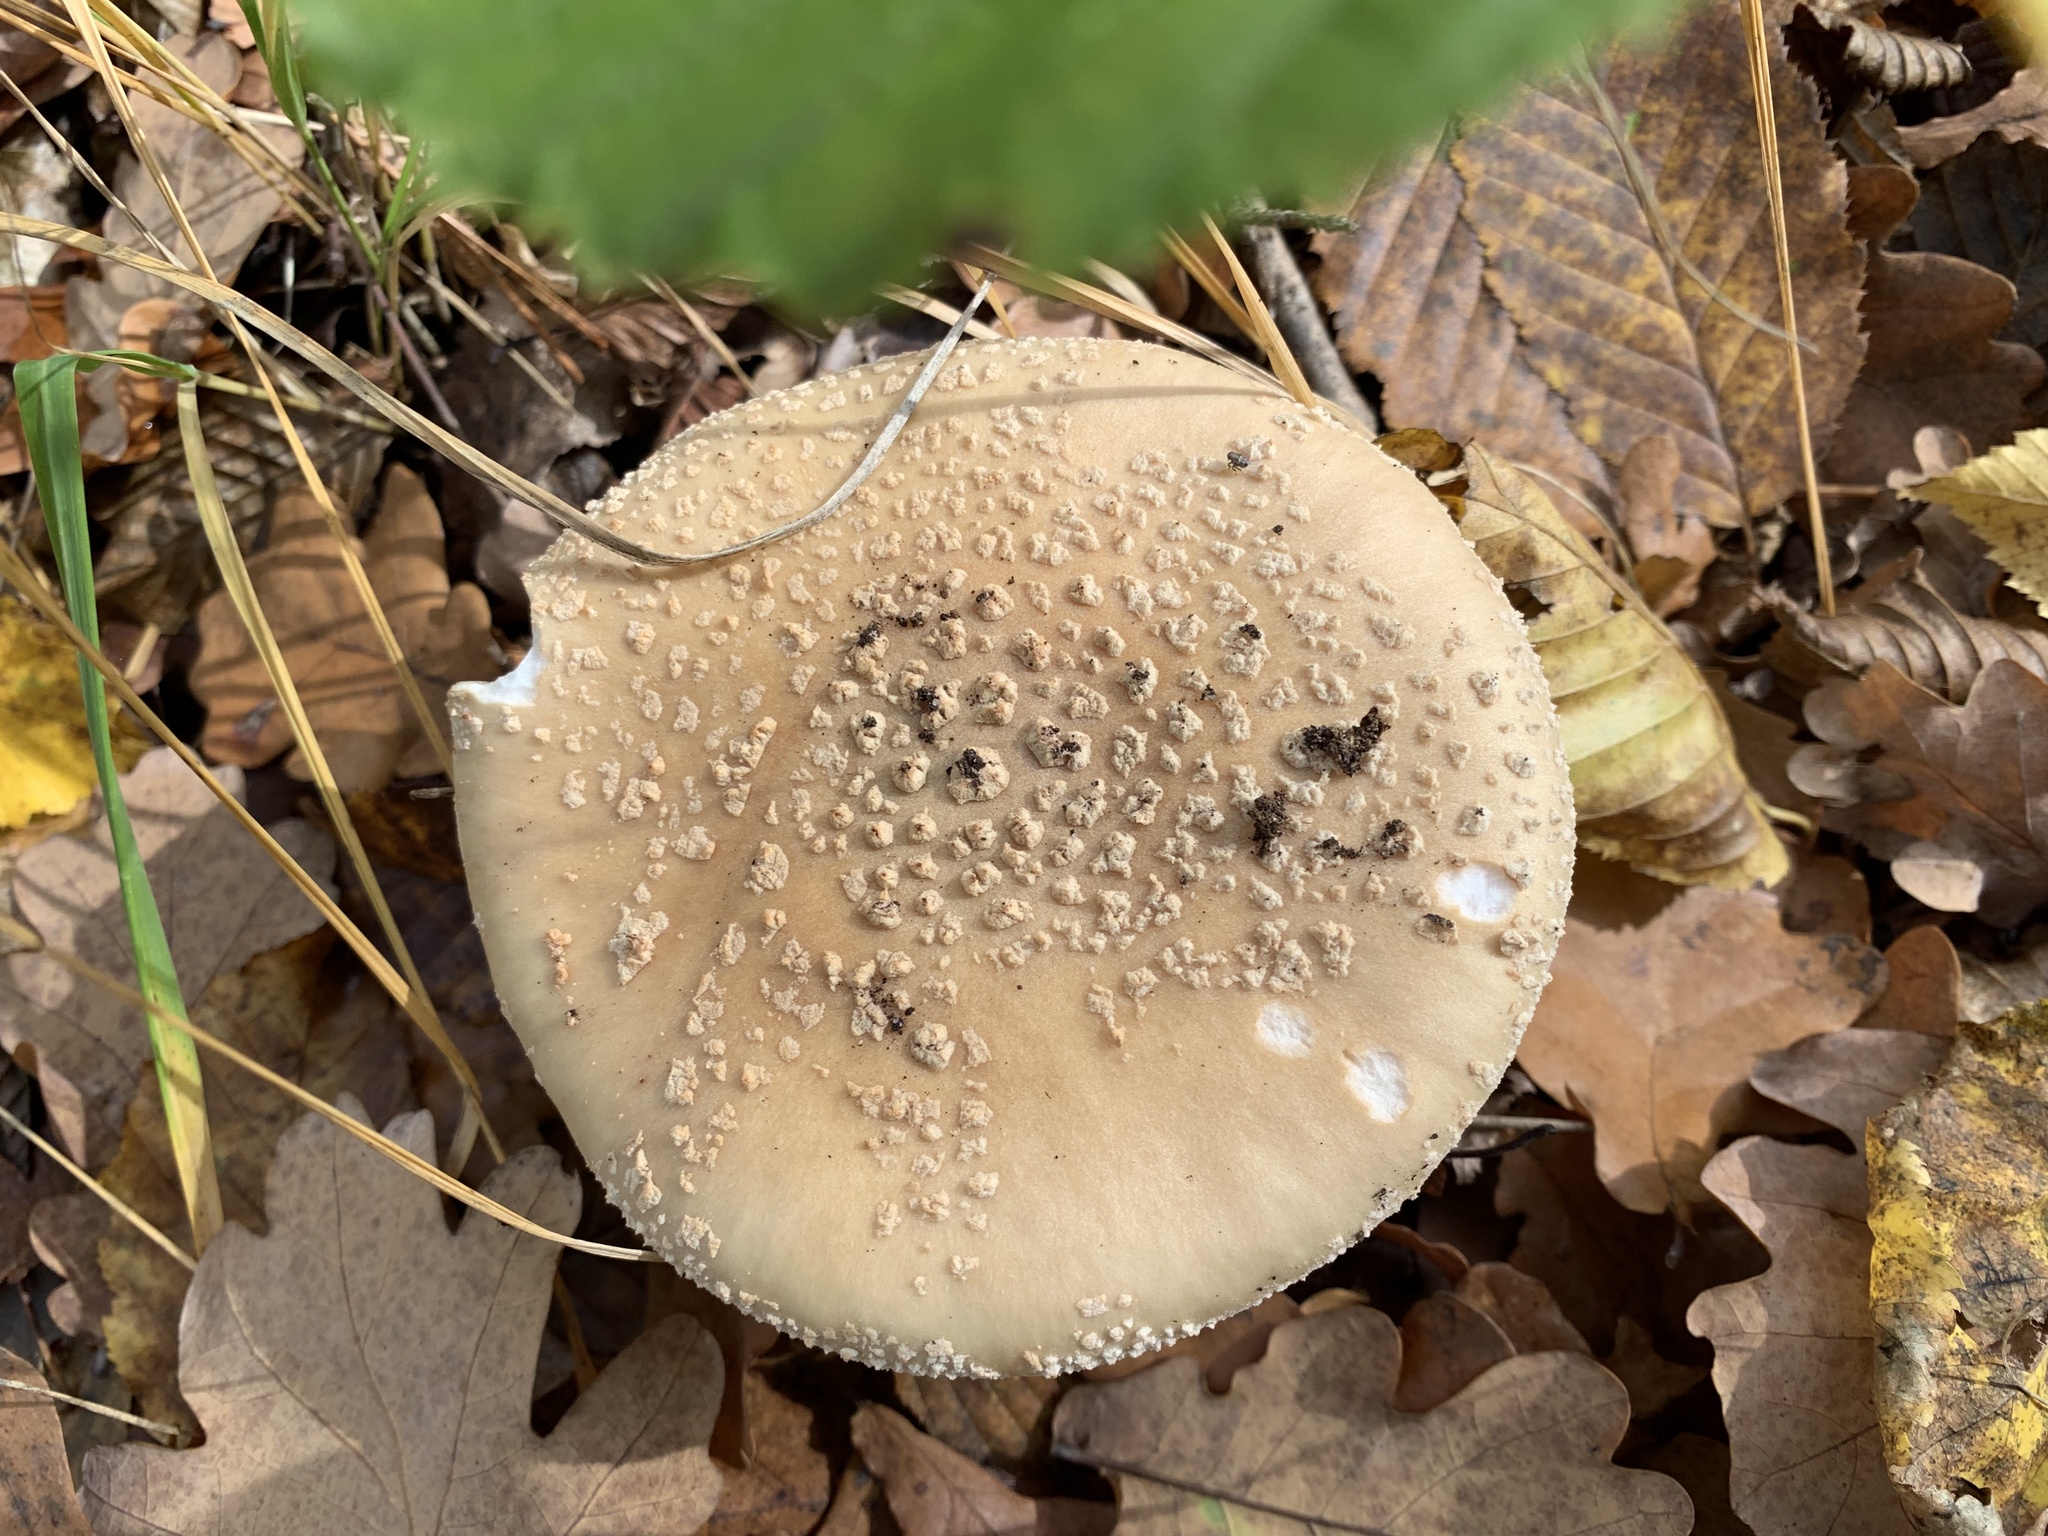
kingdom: Fungi
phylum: Basidiomycota
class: Agaricomycetes
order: Agaricales
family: Amanitaceae
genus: Amanita
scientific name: Amanita excelsa
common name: European false blusher
